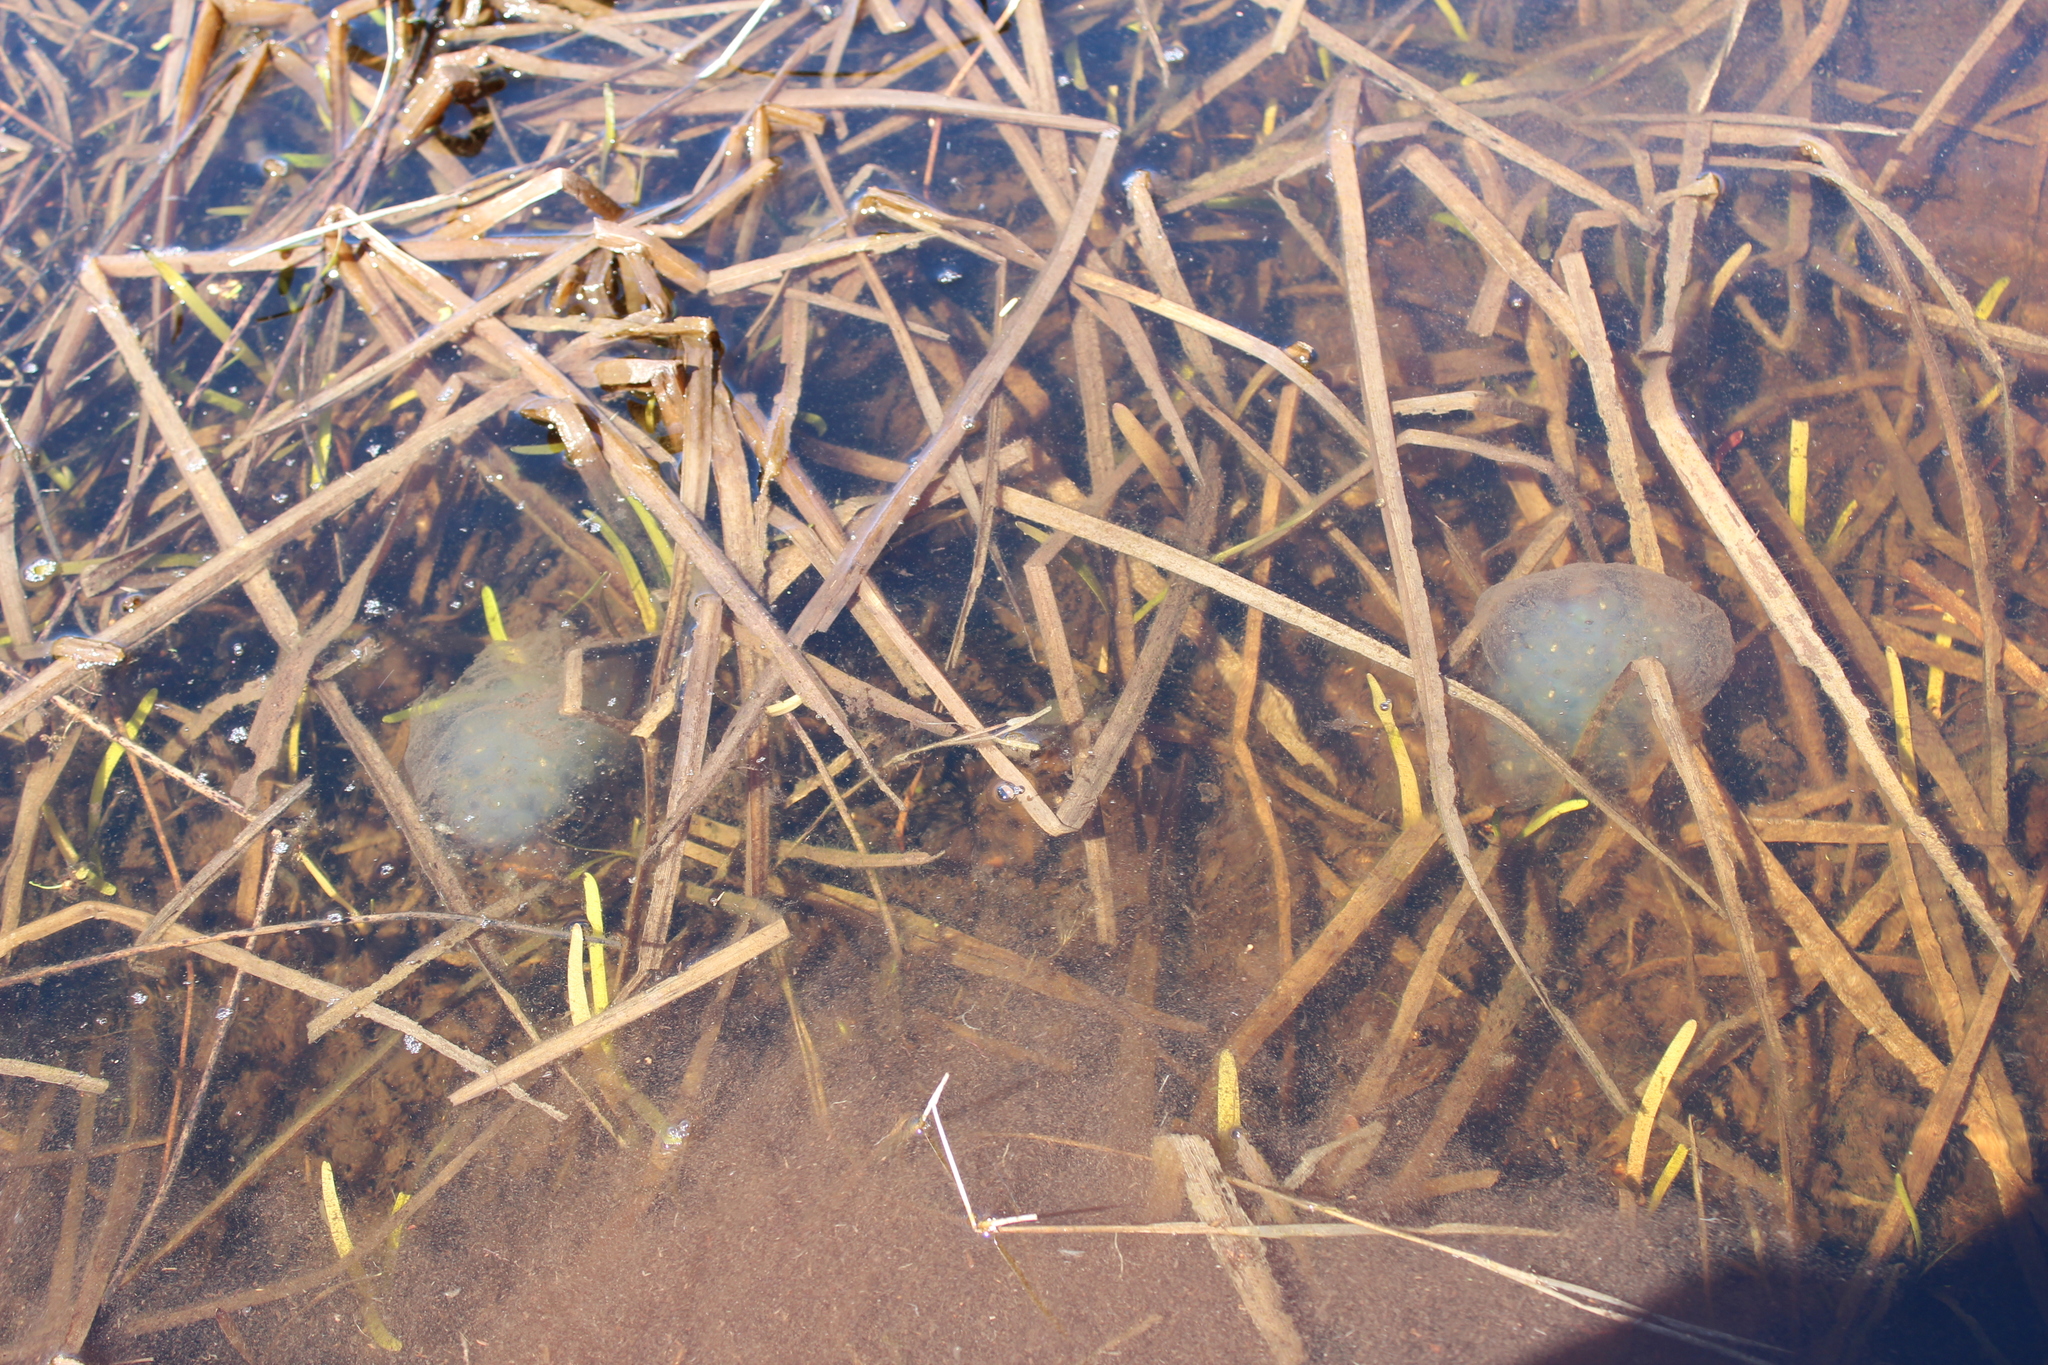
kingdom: Animalia
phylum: Chordata
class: Amphibia
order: Caudata
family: Ambystomatidae
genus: Ambystoma
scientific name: Ambystoma maculatum
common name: Spotted salamander
